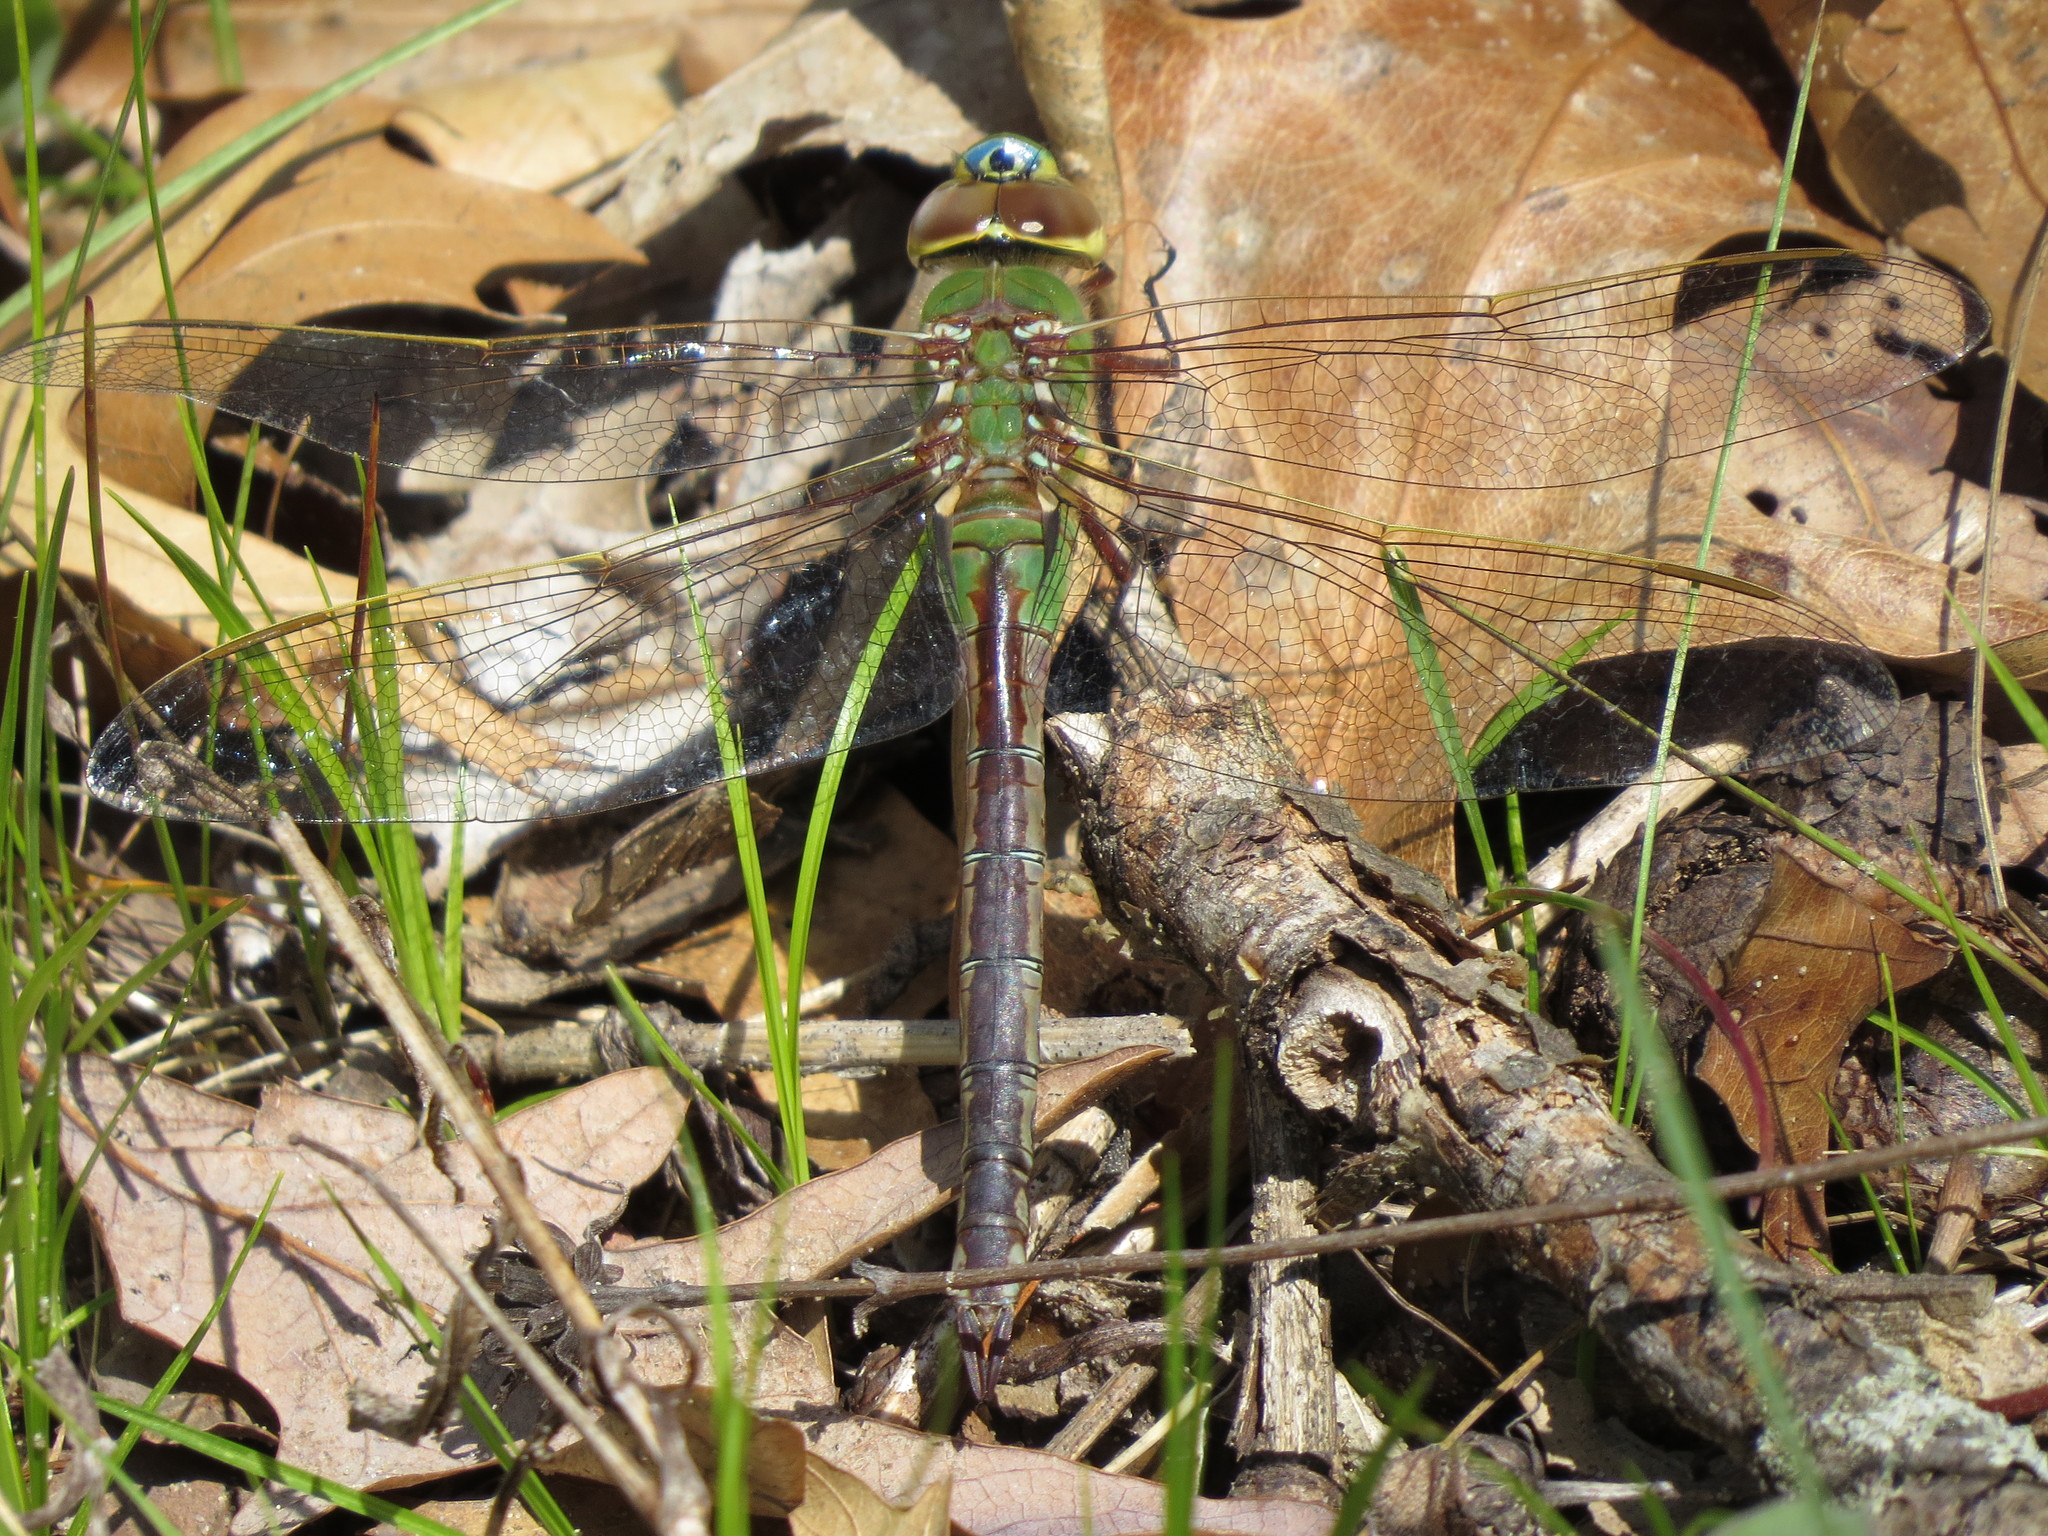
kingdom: Animalia
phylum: Arthropoda
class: Insecta
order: Odonata
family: Aeshnidae
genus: Anax
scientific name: Anax junius
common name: Common green darner
